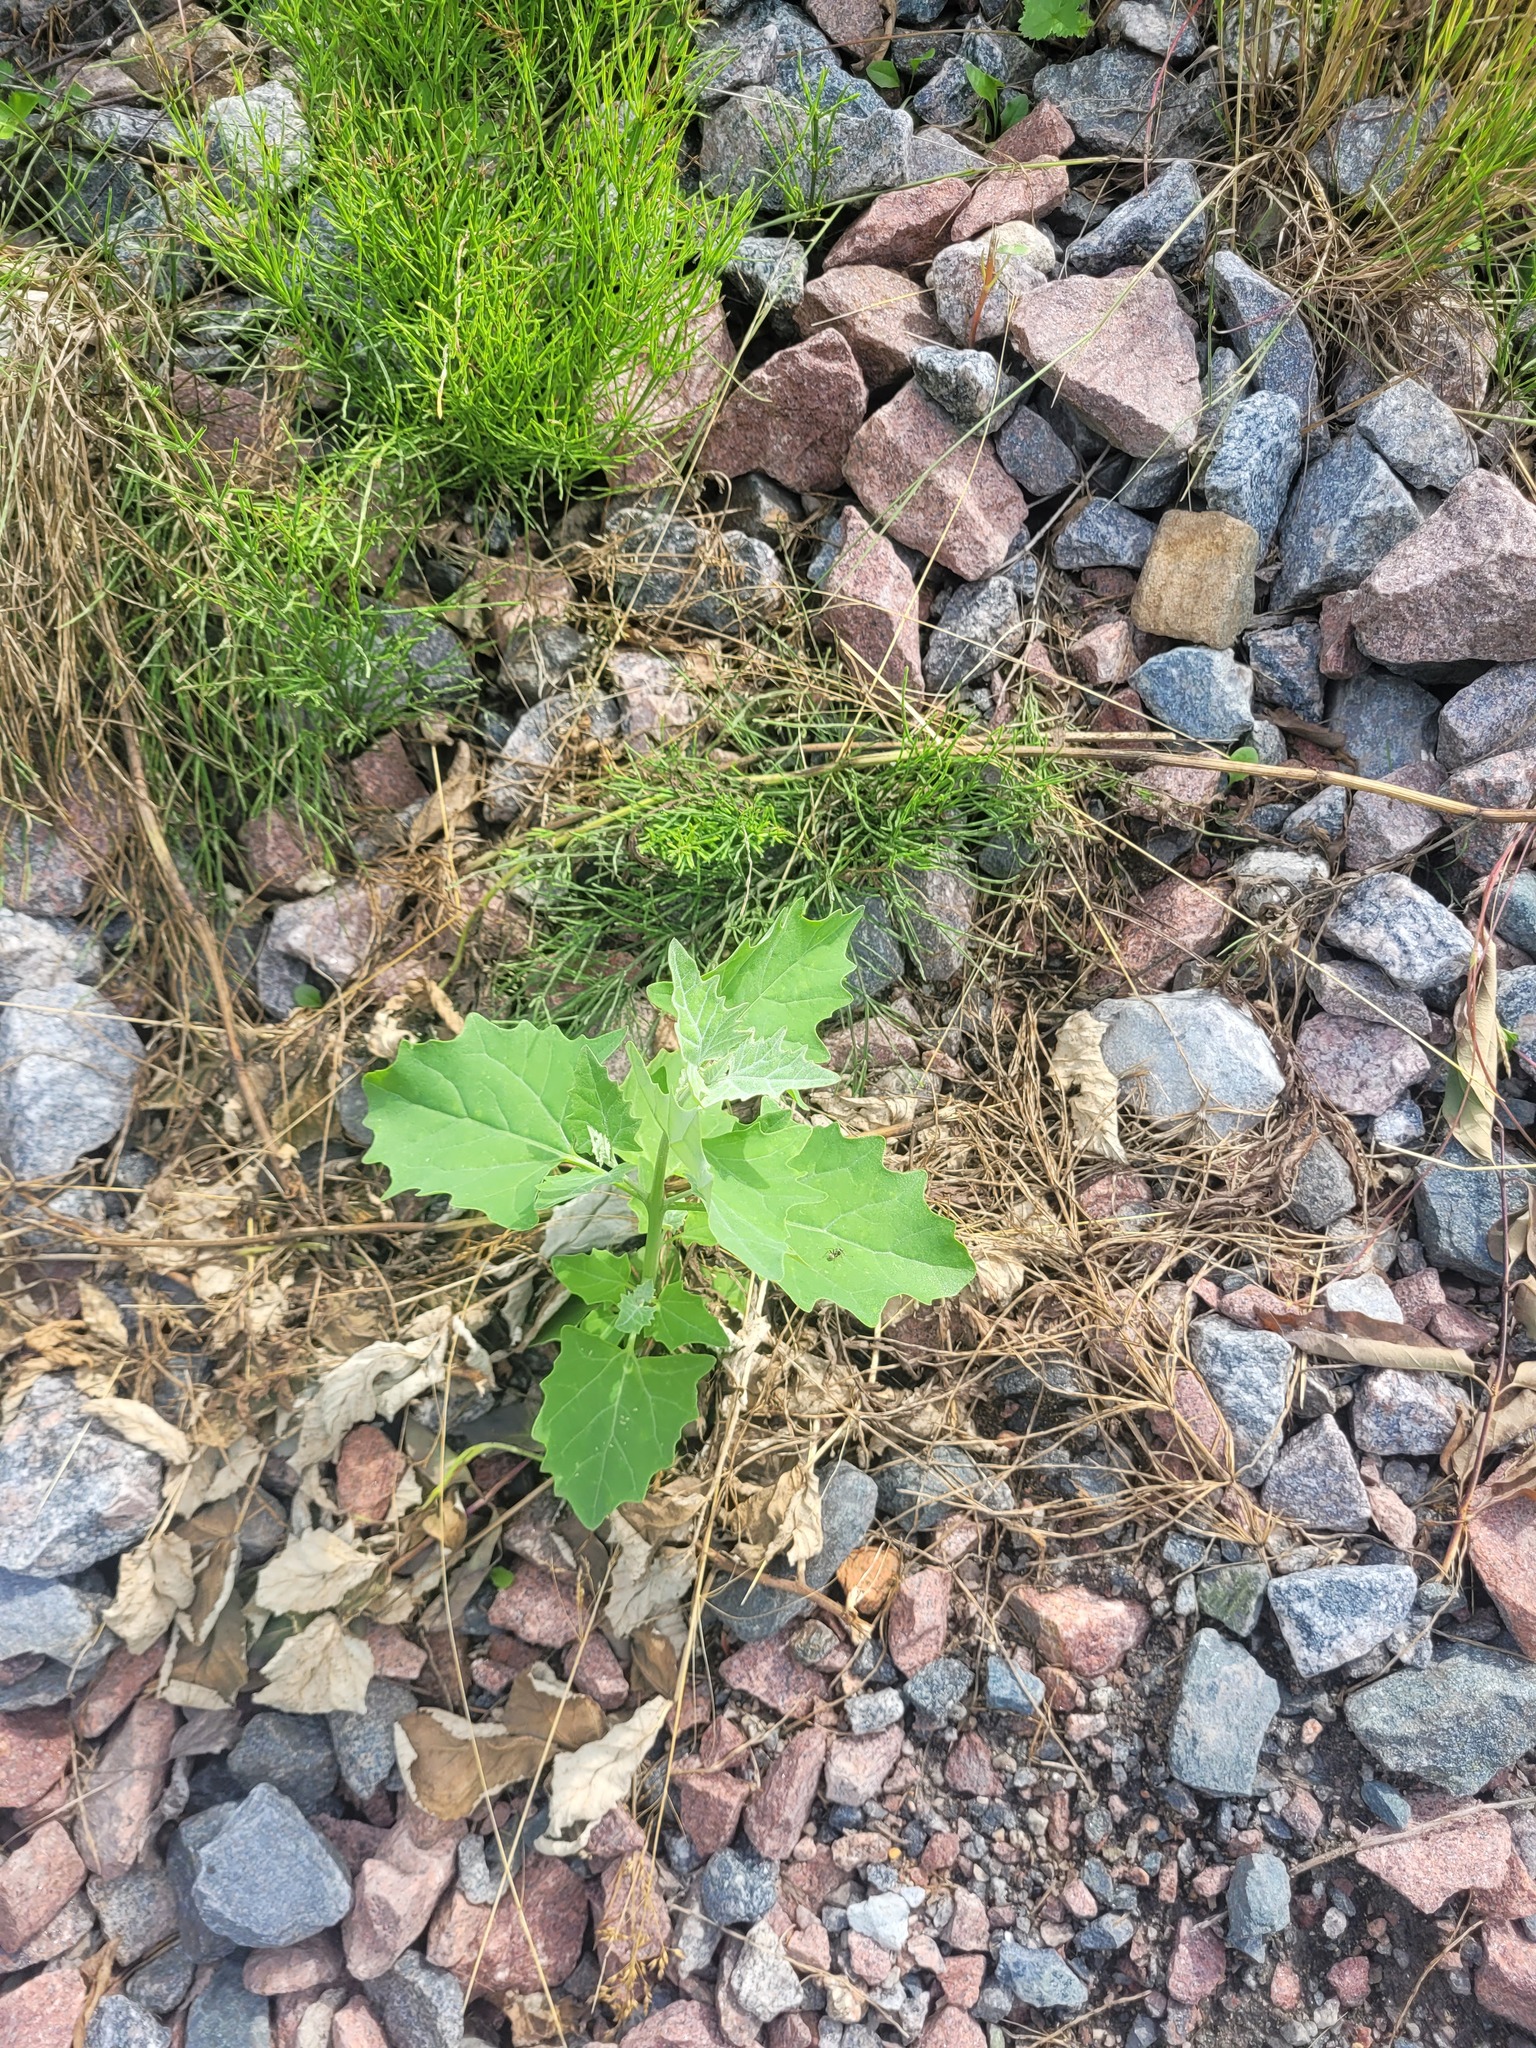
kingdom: Plantae
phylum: Tracheophyta
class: Magnoliopsida
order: Caryophyllales
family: Amaranthaceae
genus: Atriplex
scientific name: Atriplex sagittata
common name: Purple orache
